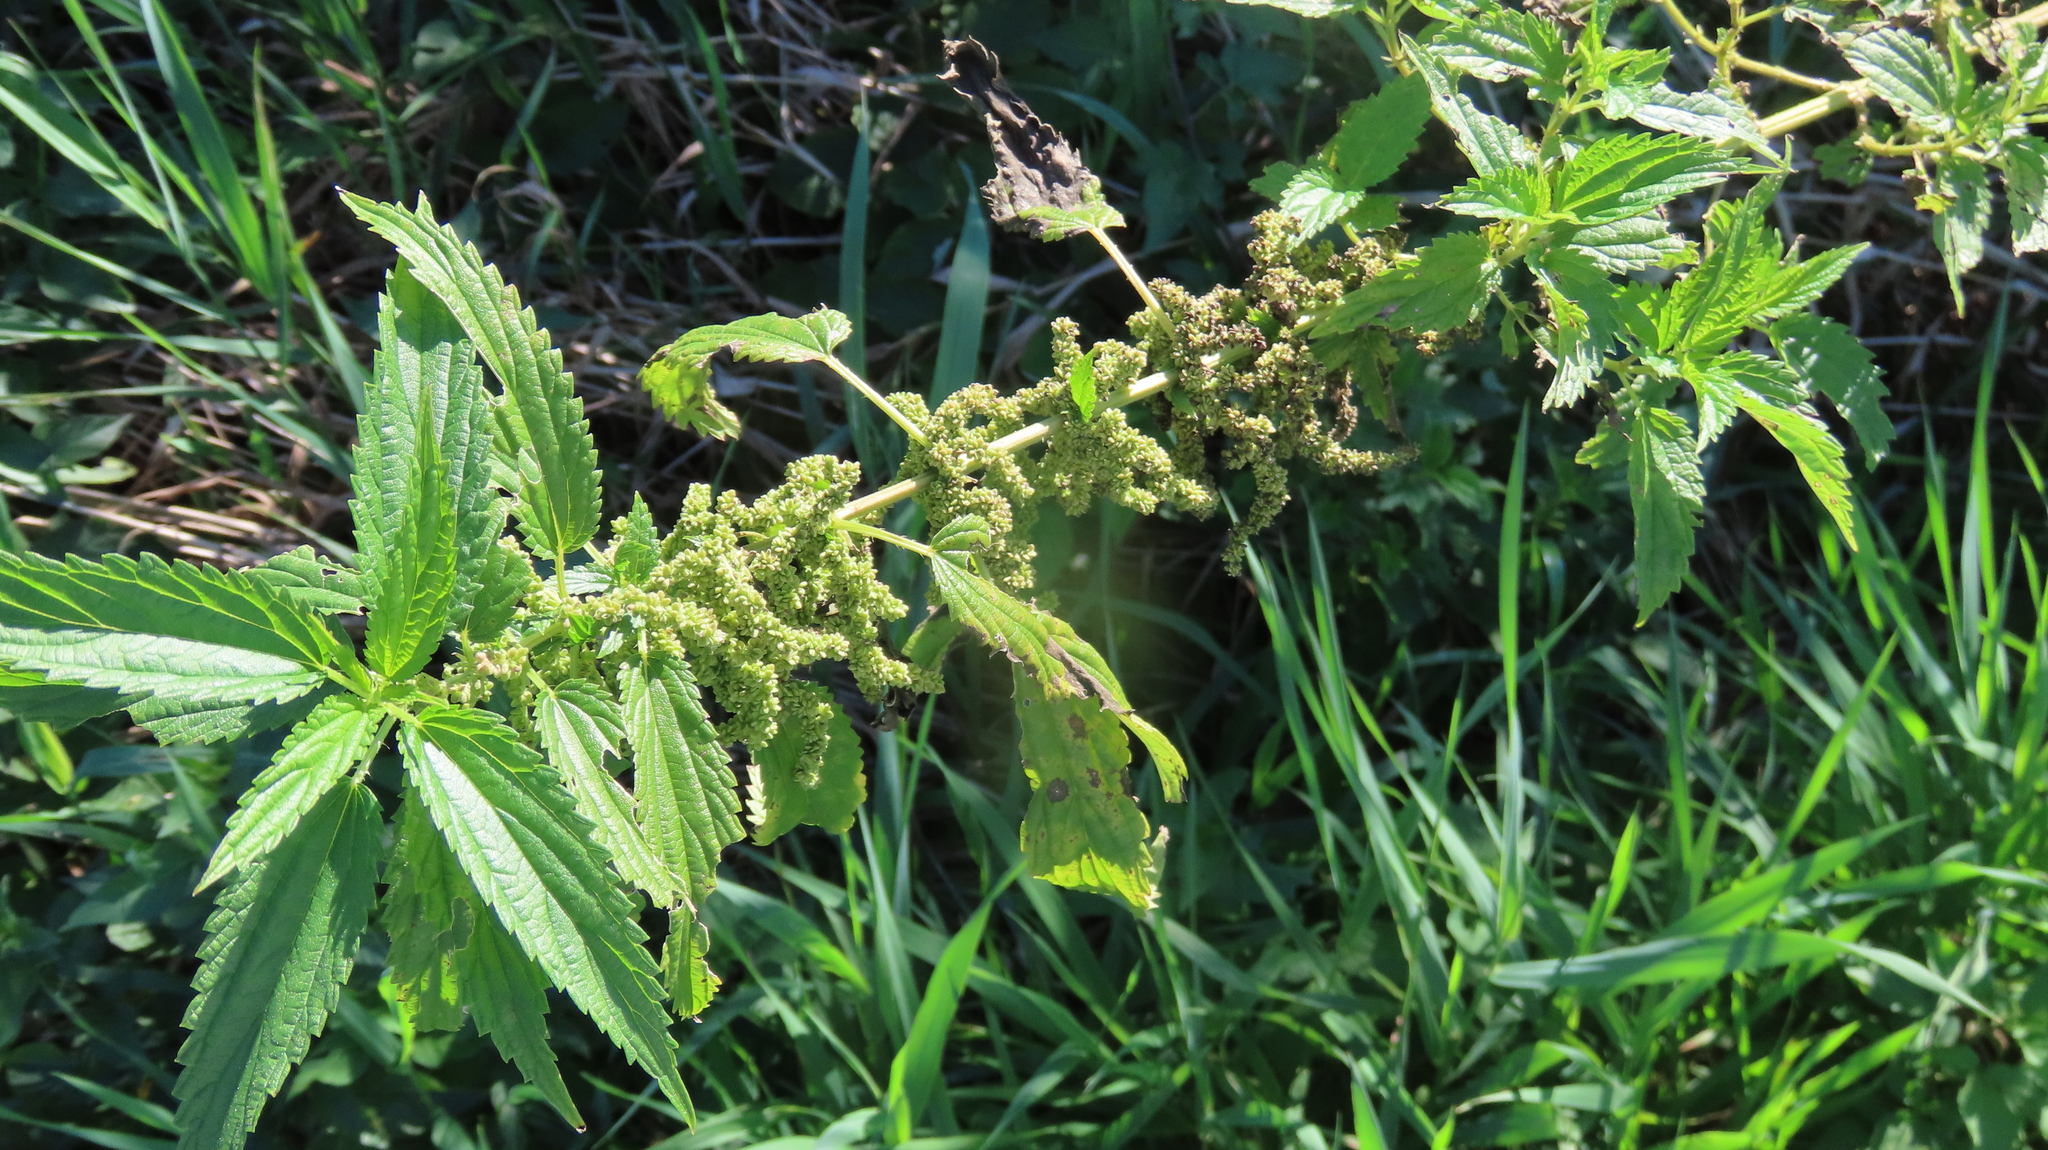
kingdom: Plantae
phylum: Tracheophyta
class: Magnoliopsida
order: Rosales
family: Urticaceae
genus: Urtica
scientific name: Urtica dioica
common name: Common nettle
